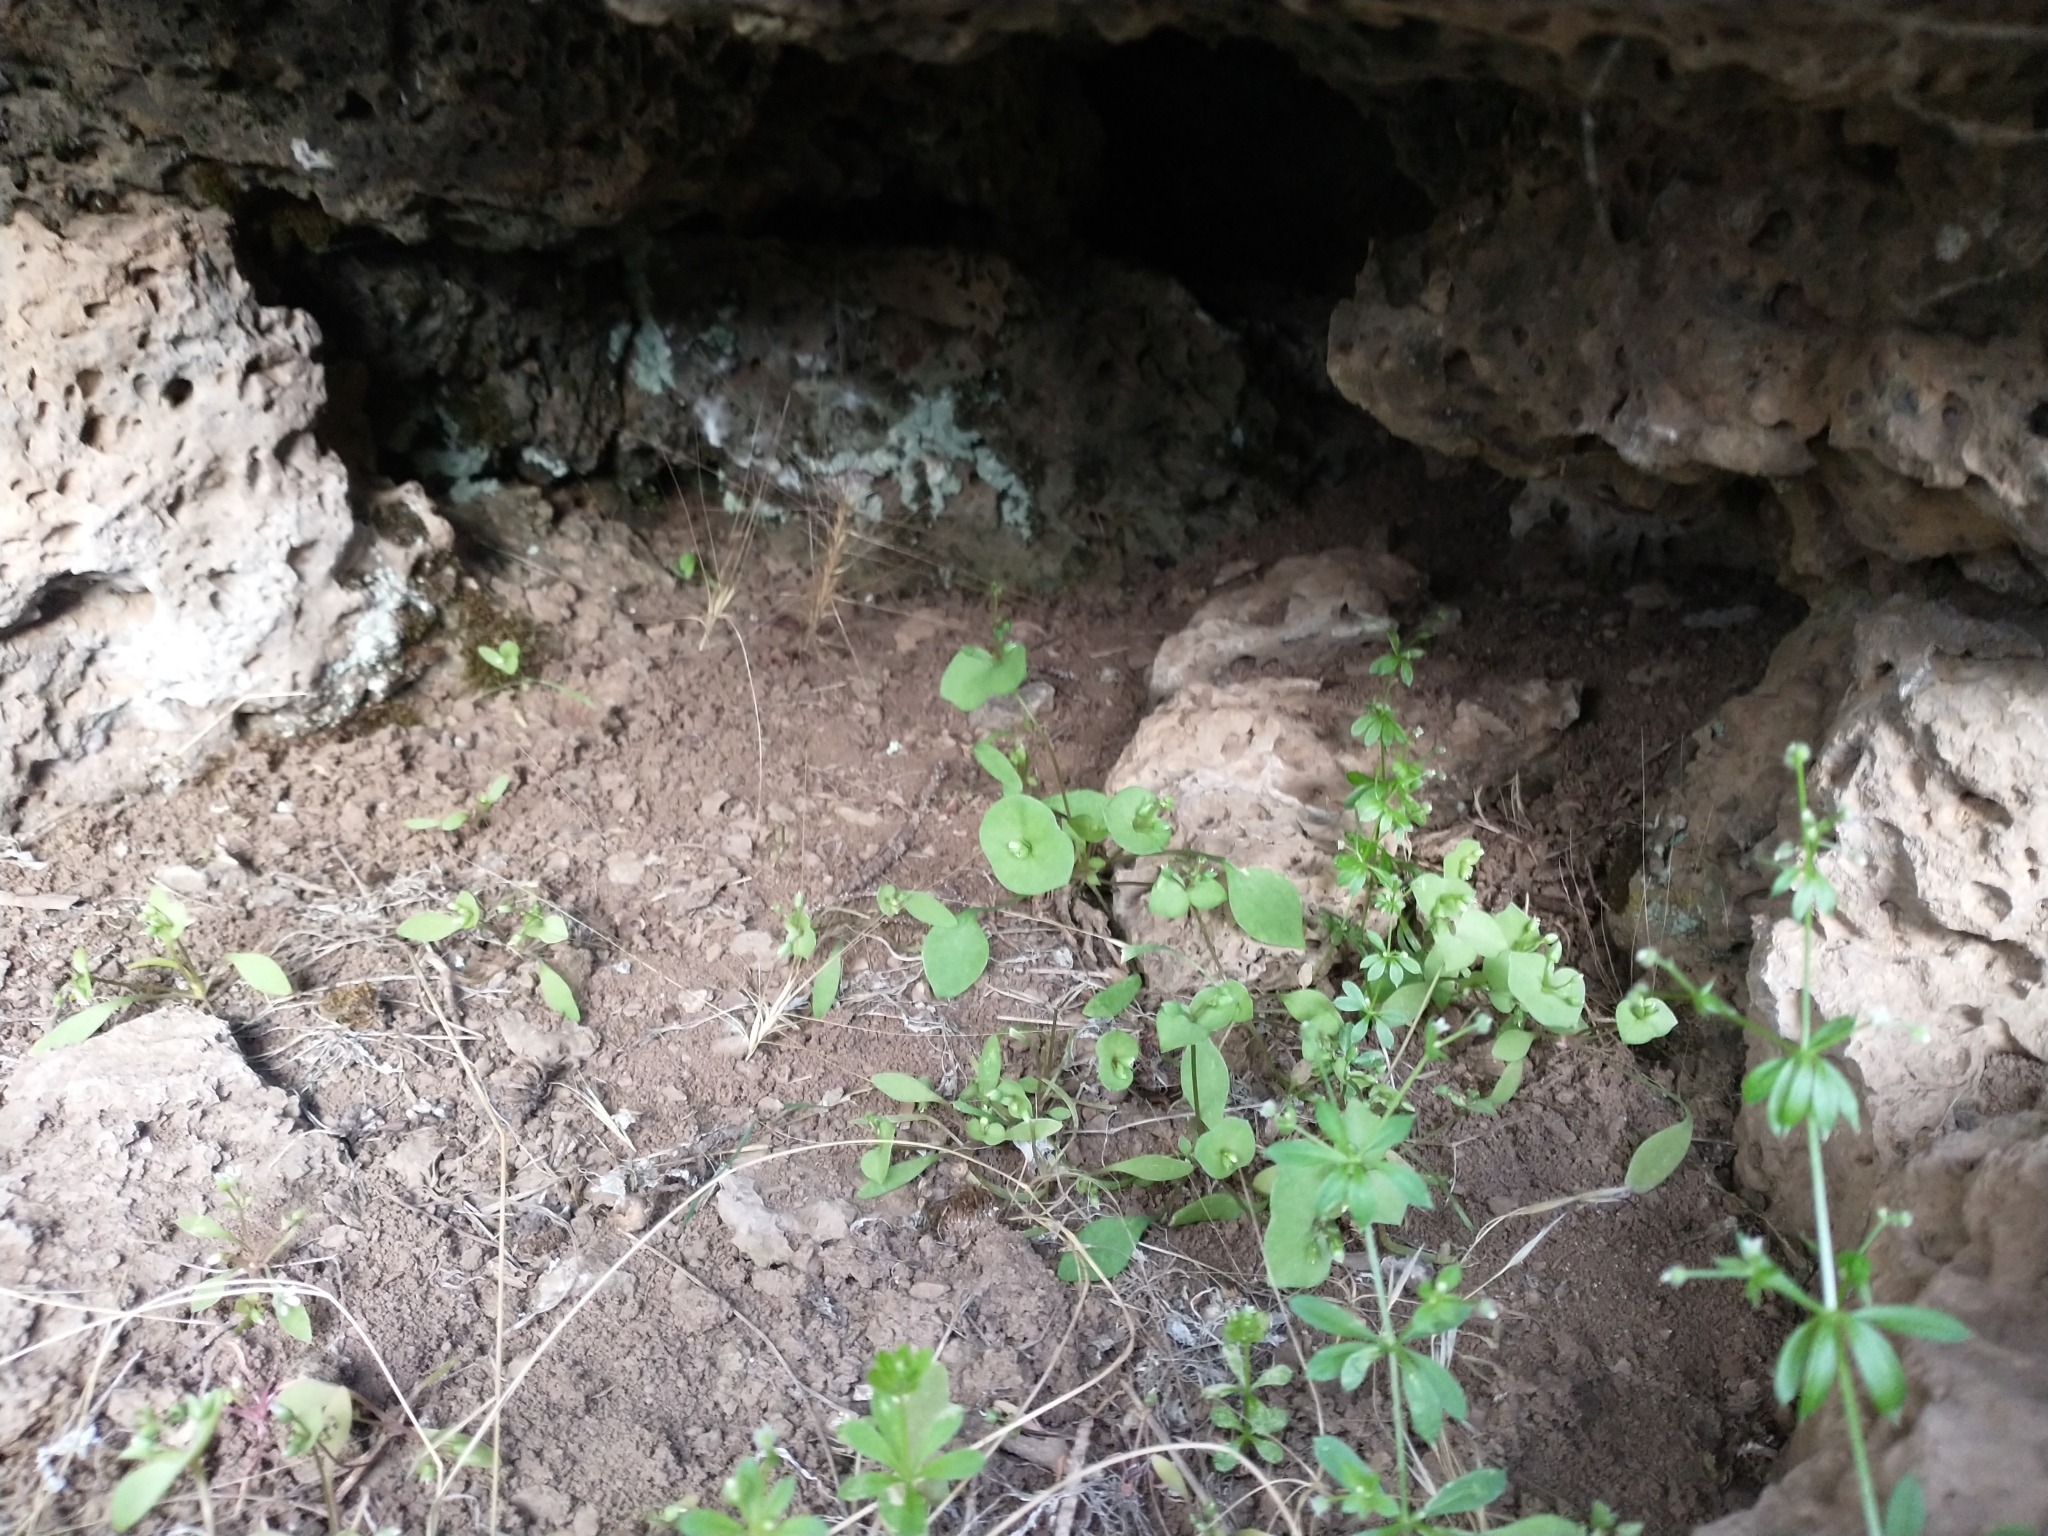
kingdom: Plantae
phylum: Tracheophyta
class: Magnoliopsida
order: Caryophyllales
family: Montiaceae
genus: Claytonia
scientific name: Claytonia perfoliata
